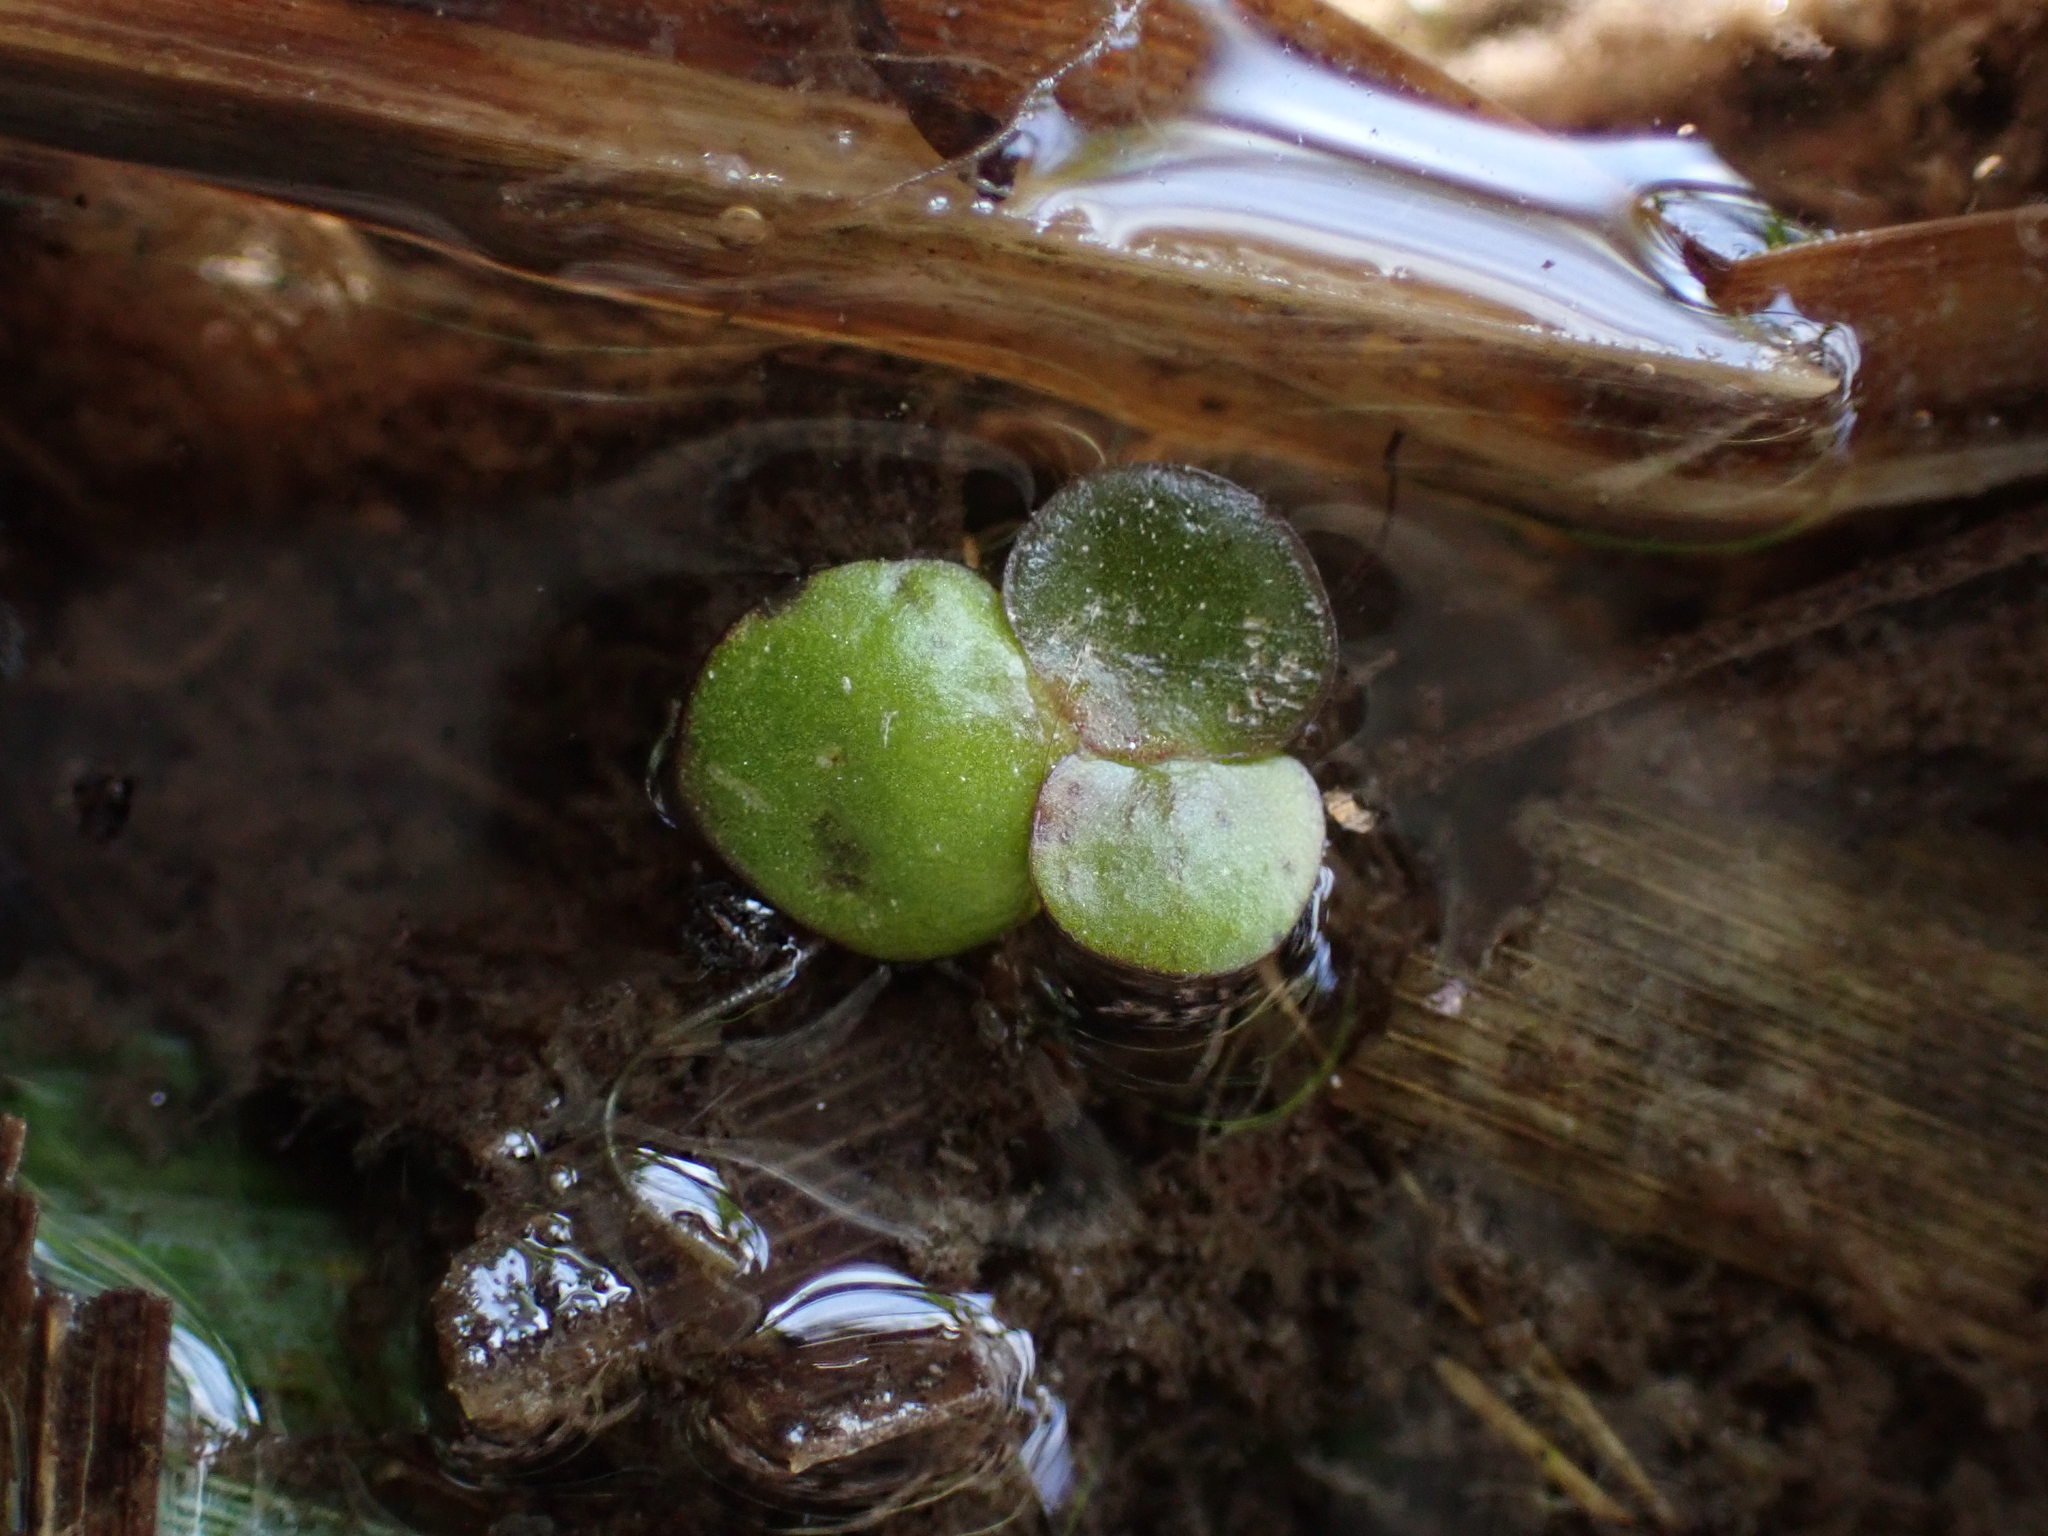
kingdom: Plantae
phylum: Tracheophyta
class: Liliopsida
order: Alismatales
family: Araceae
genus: Spirodela
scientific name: Spirodela polyrhiza
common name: Great duckweed
